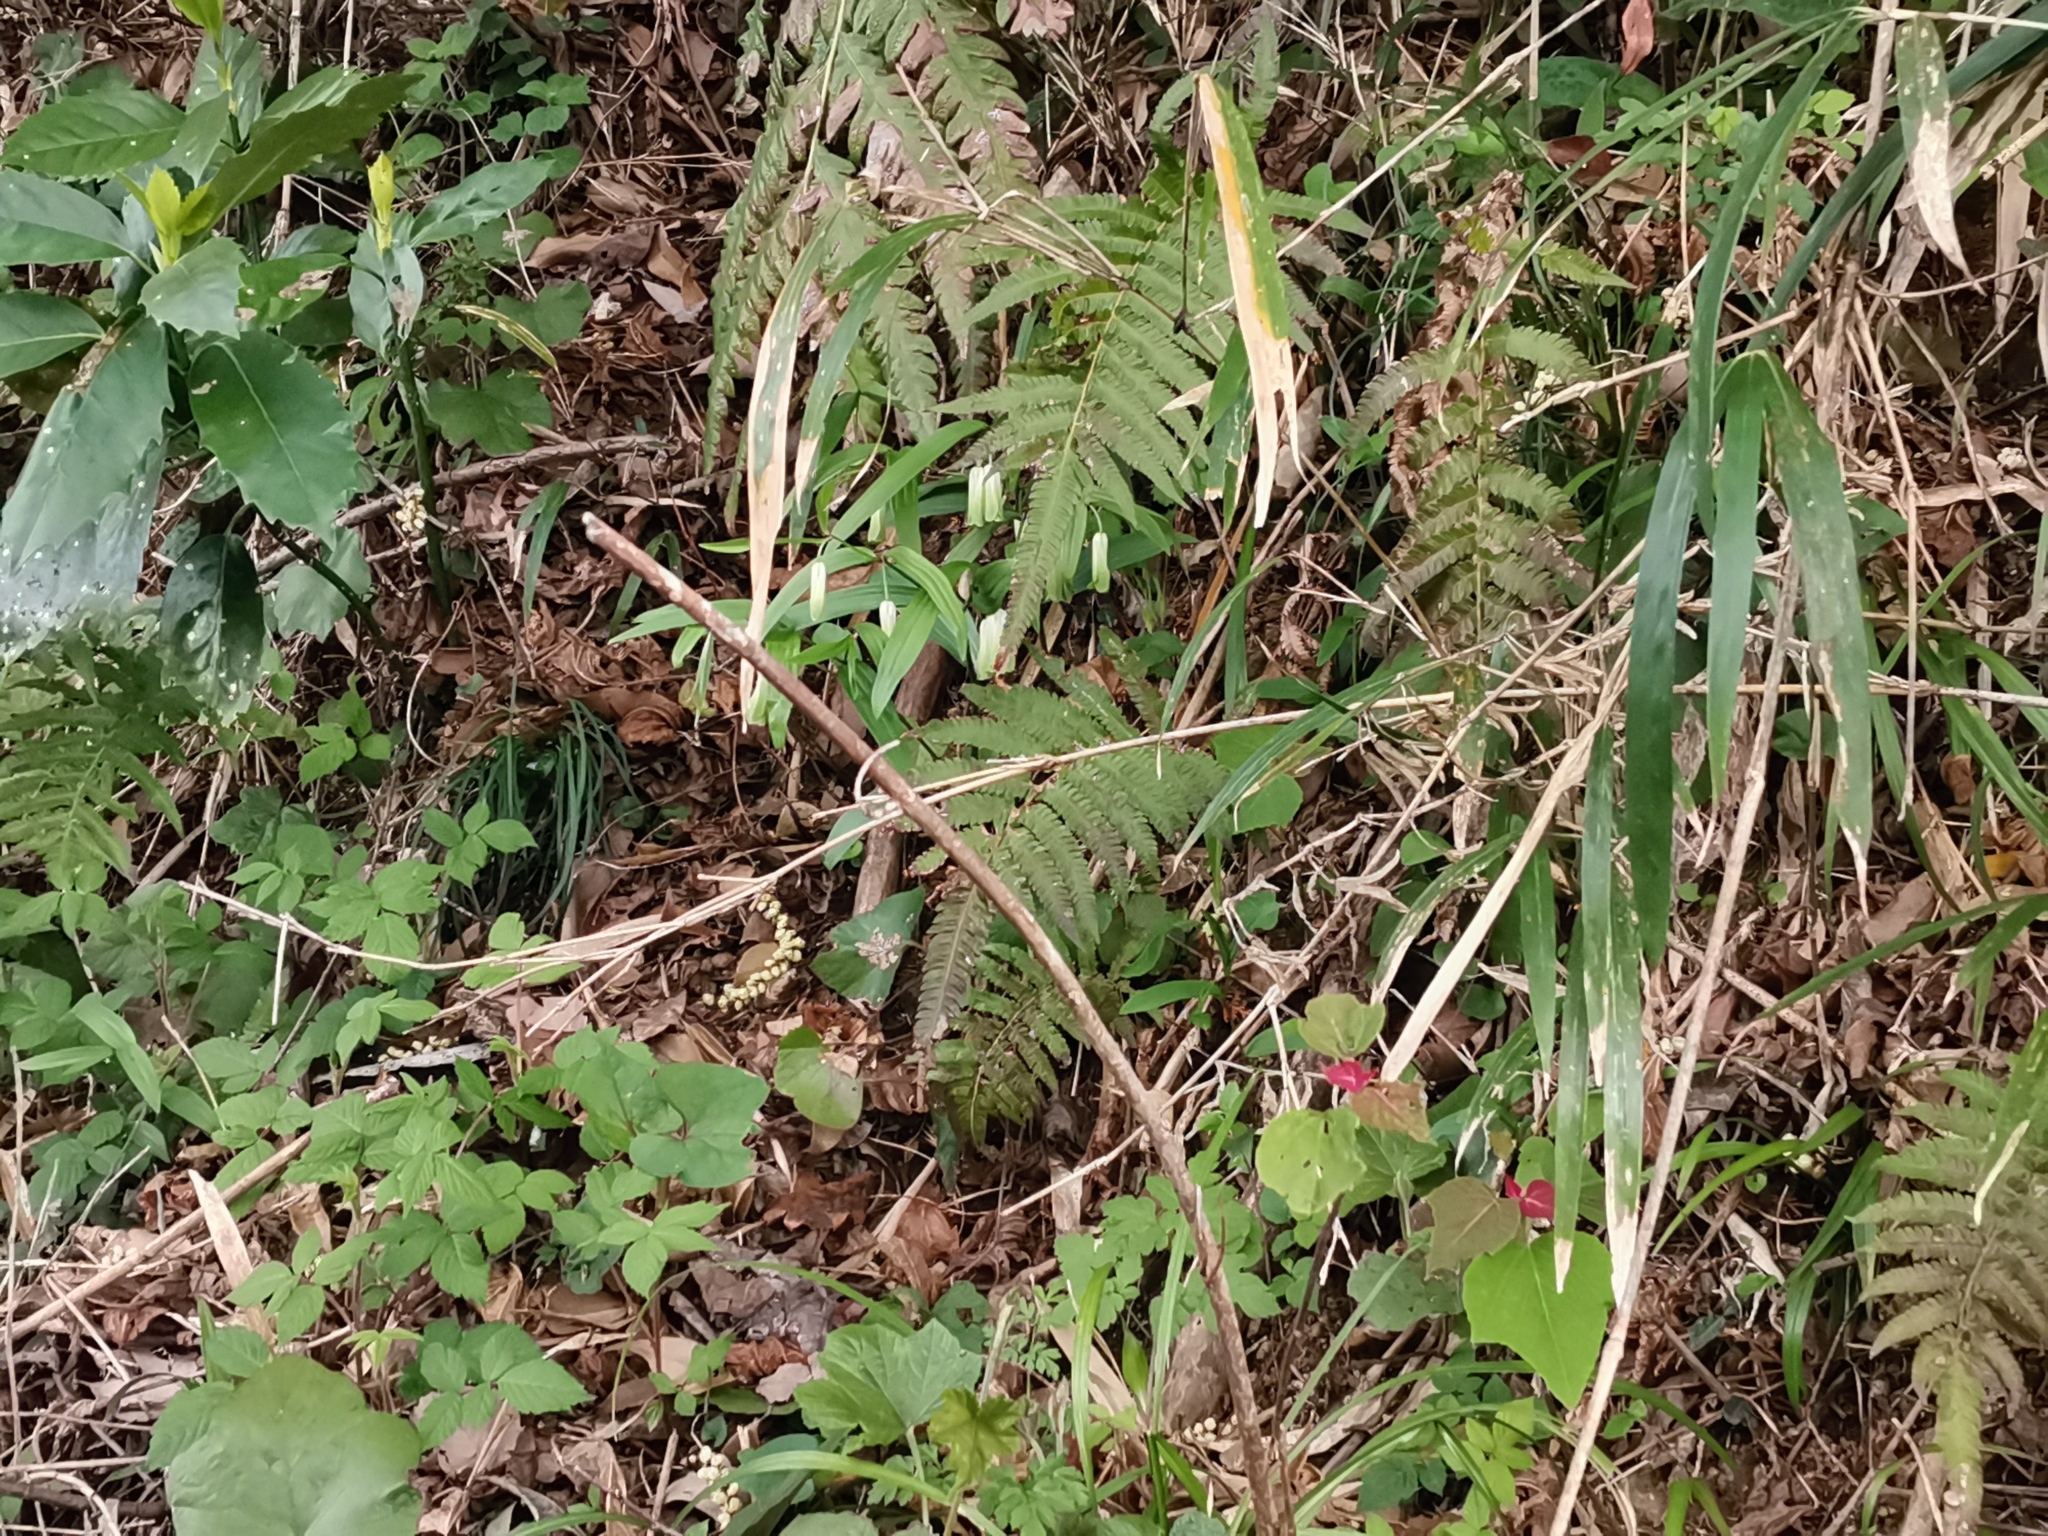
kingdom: Plantae
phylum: Tracheophyta
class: Liliopsida
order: Liliales
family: Colchicaceae
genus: Disporum
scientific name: Disporum sessile
